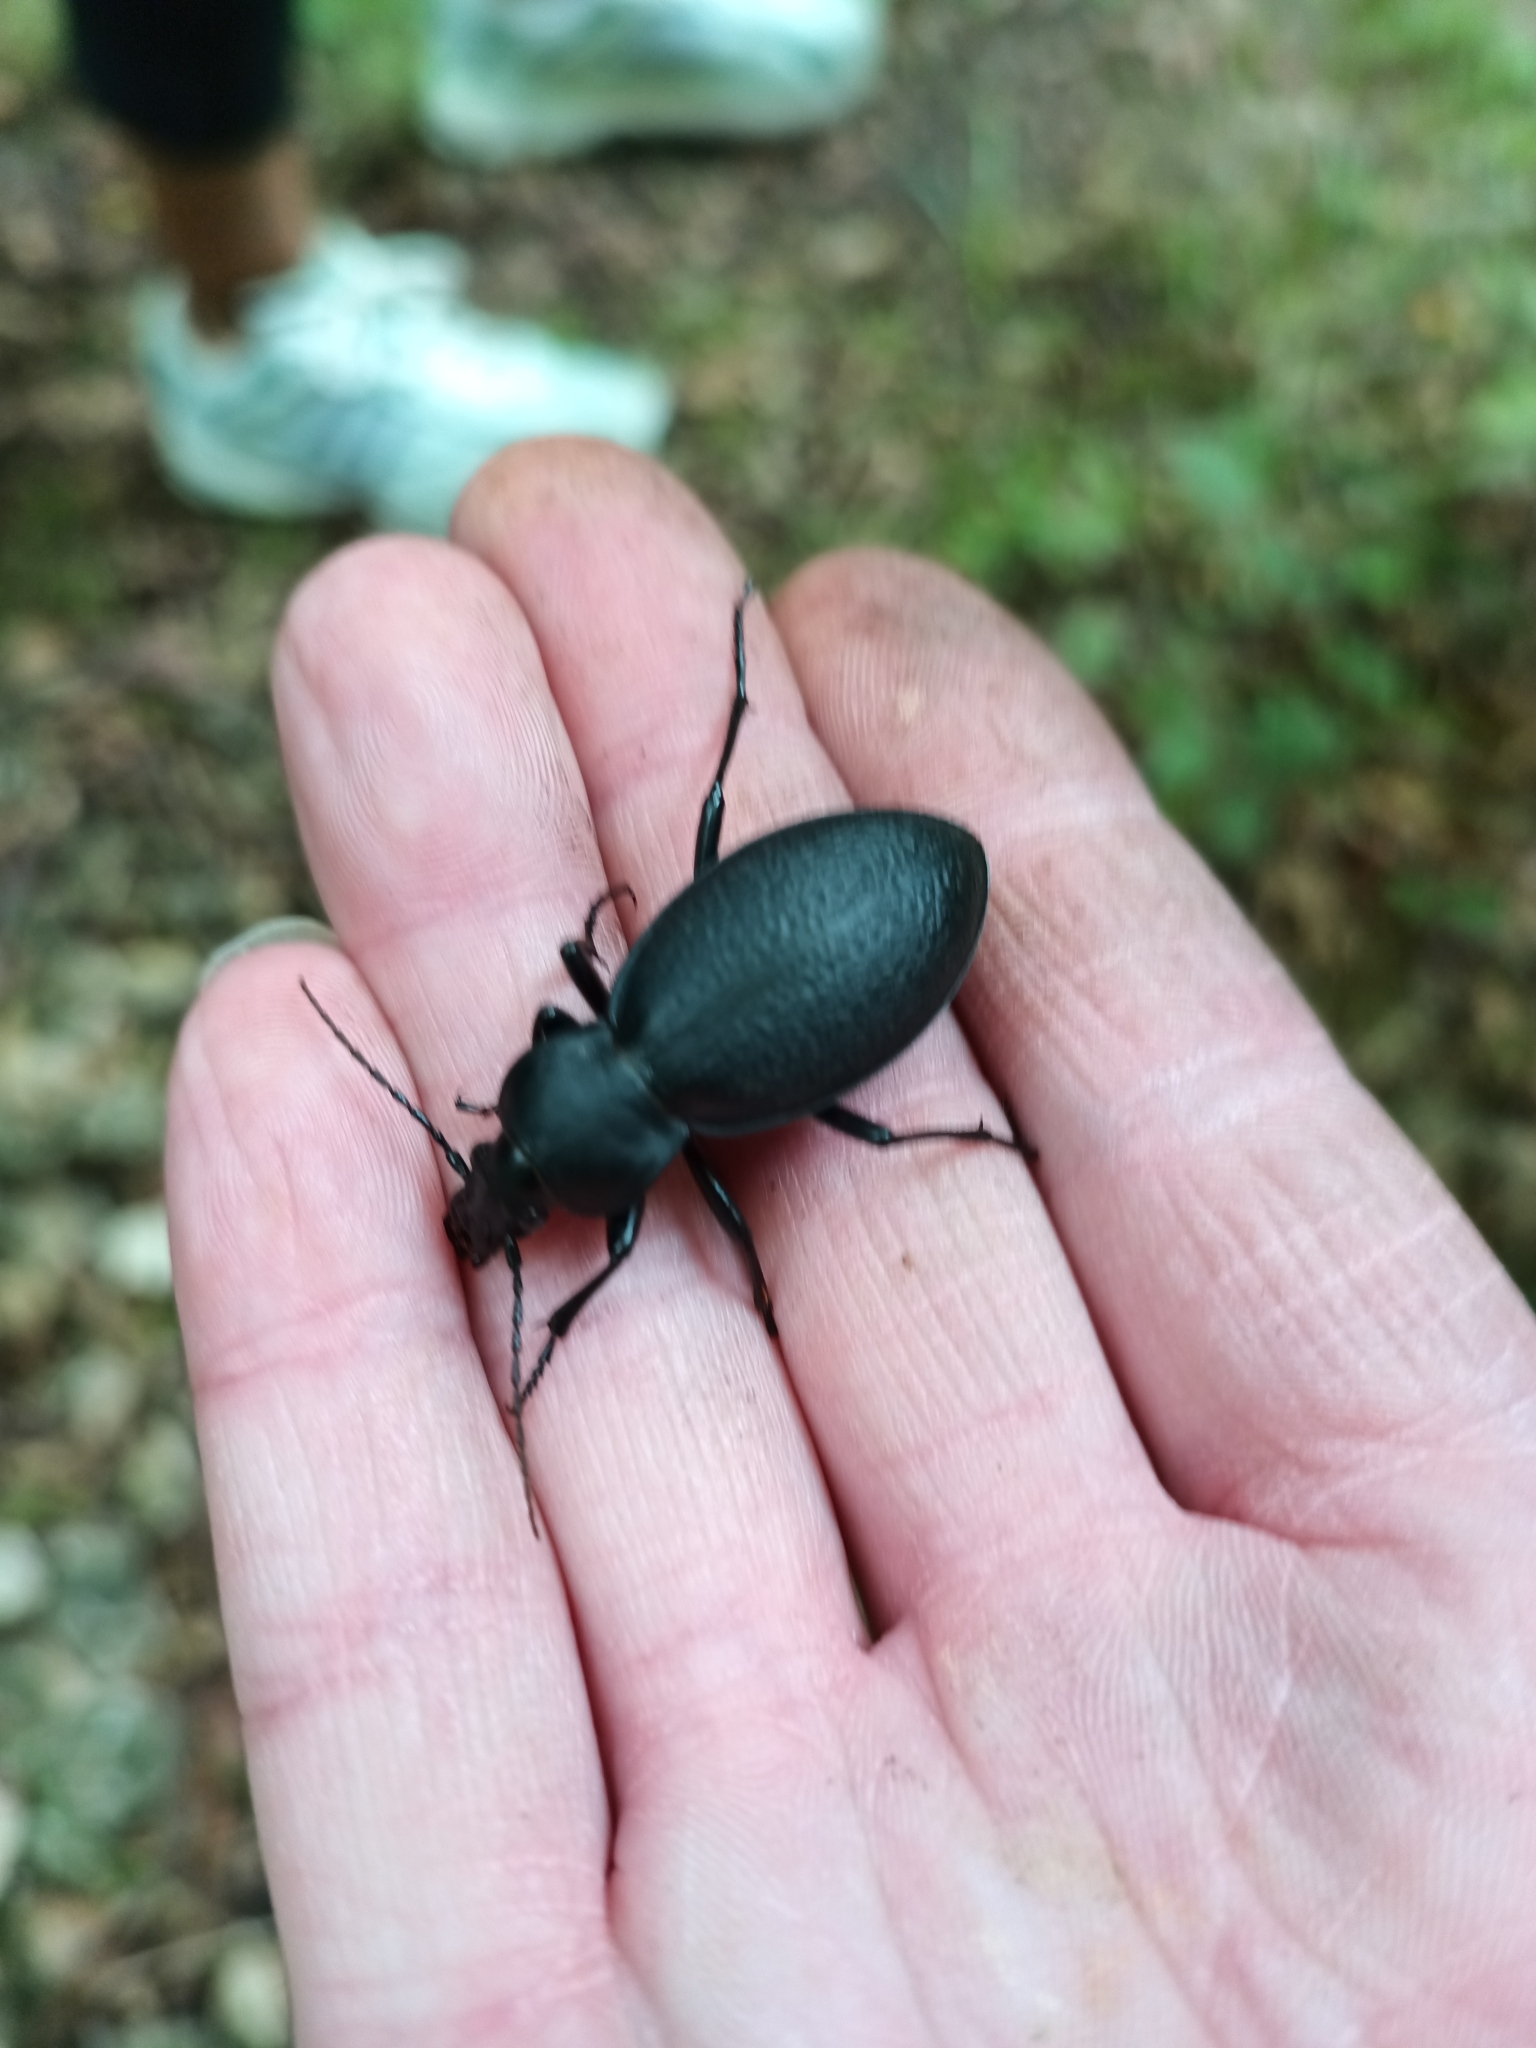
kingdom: Animalia
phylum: Arthropoda
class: Insecta
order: Coleoptera
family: Carabidae
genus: Carabus
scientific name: Carabus coriaceus
